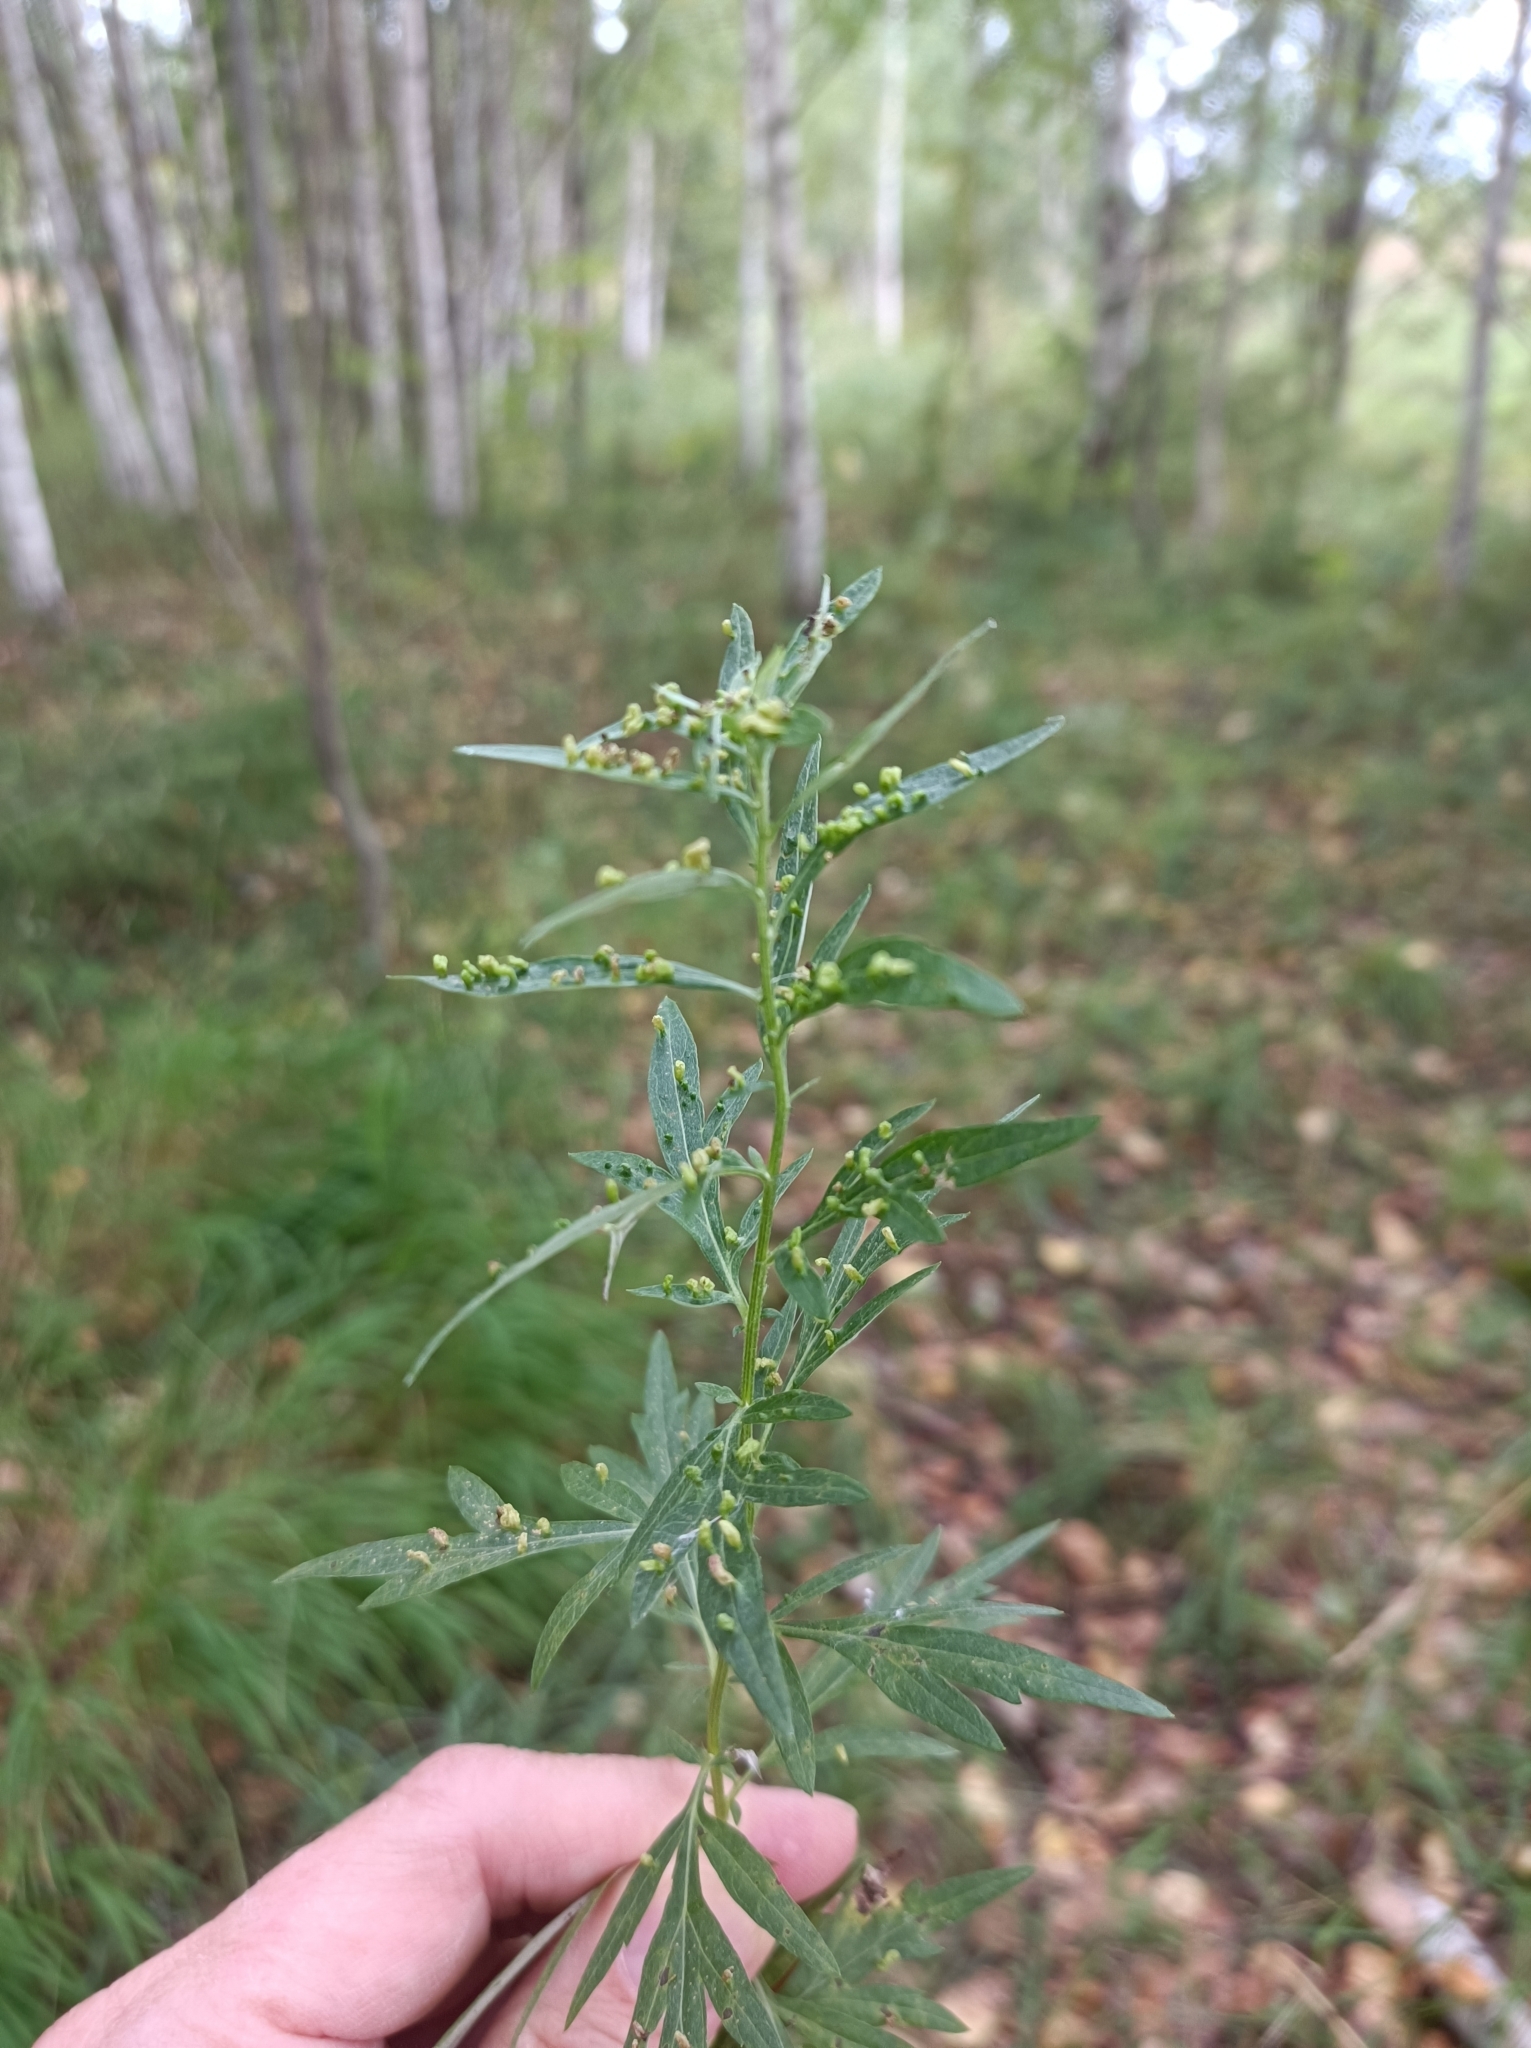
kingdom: Plantae
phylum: Tracheophyta
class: Magnoliopsida
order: Asterales
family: Asteraceae
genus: Artemisia
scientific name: Artemisia vulgaris
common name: Mugwort
